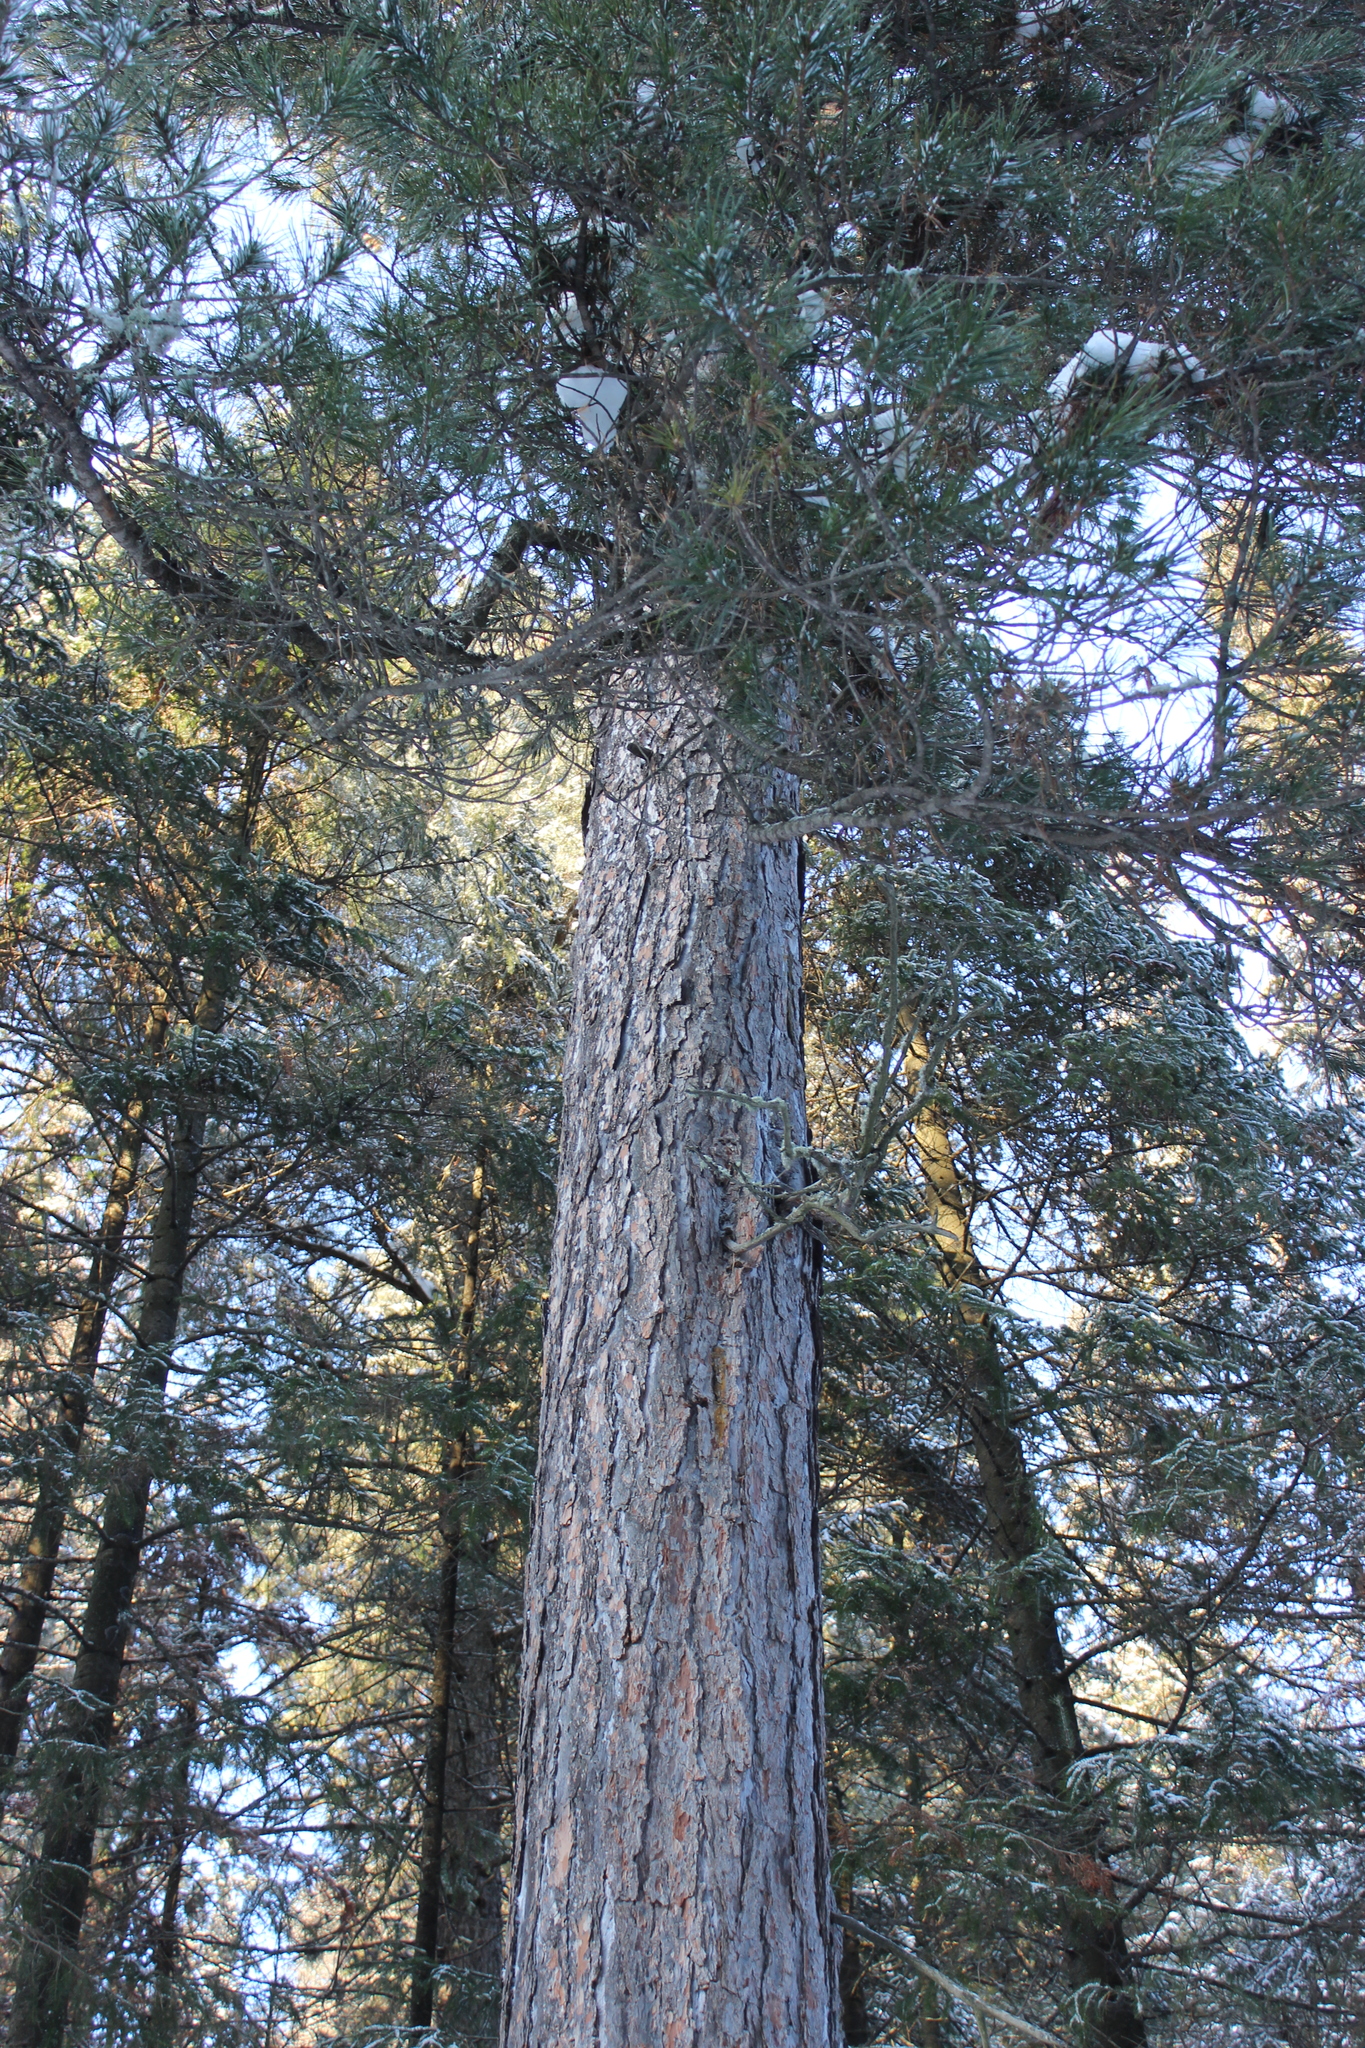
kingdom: Plantae
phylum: Tracheophyta
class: Pinopsida
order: Pinales
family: Pinaceae
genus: Pinus
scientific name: Pinus sibirica
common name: Siberian pine
